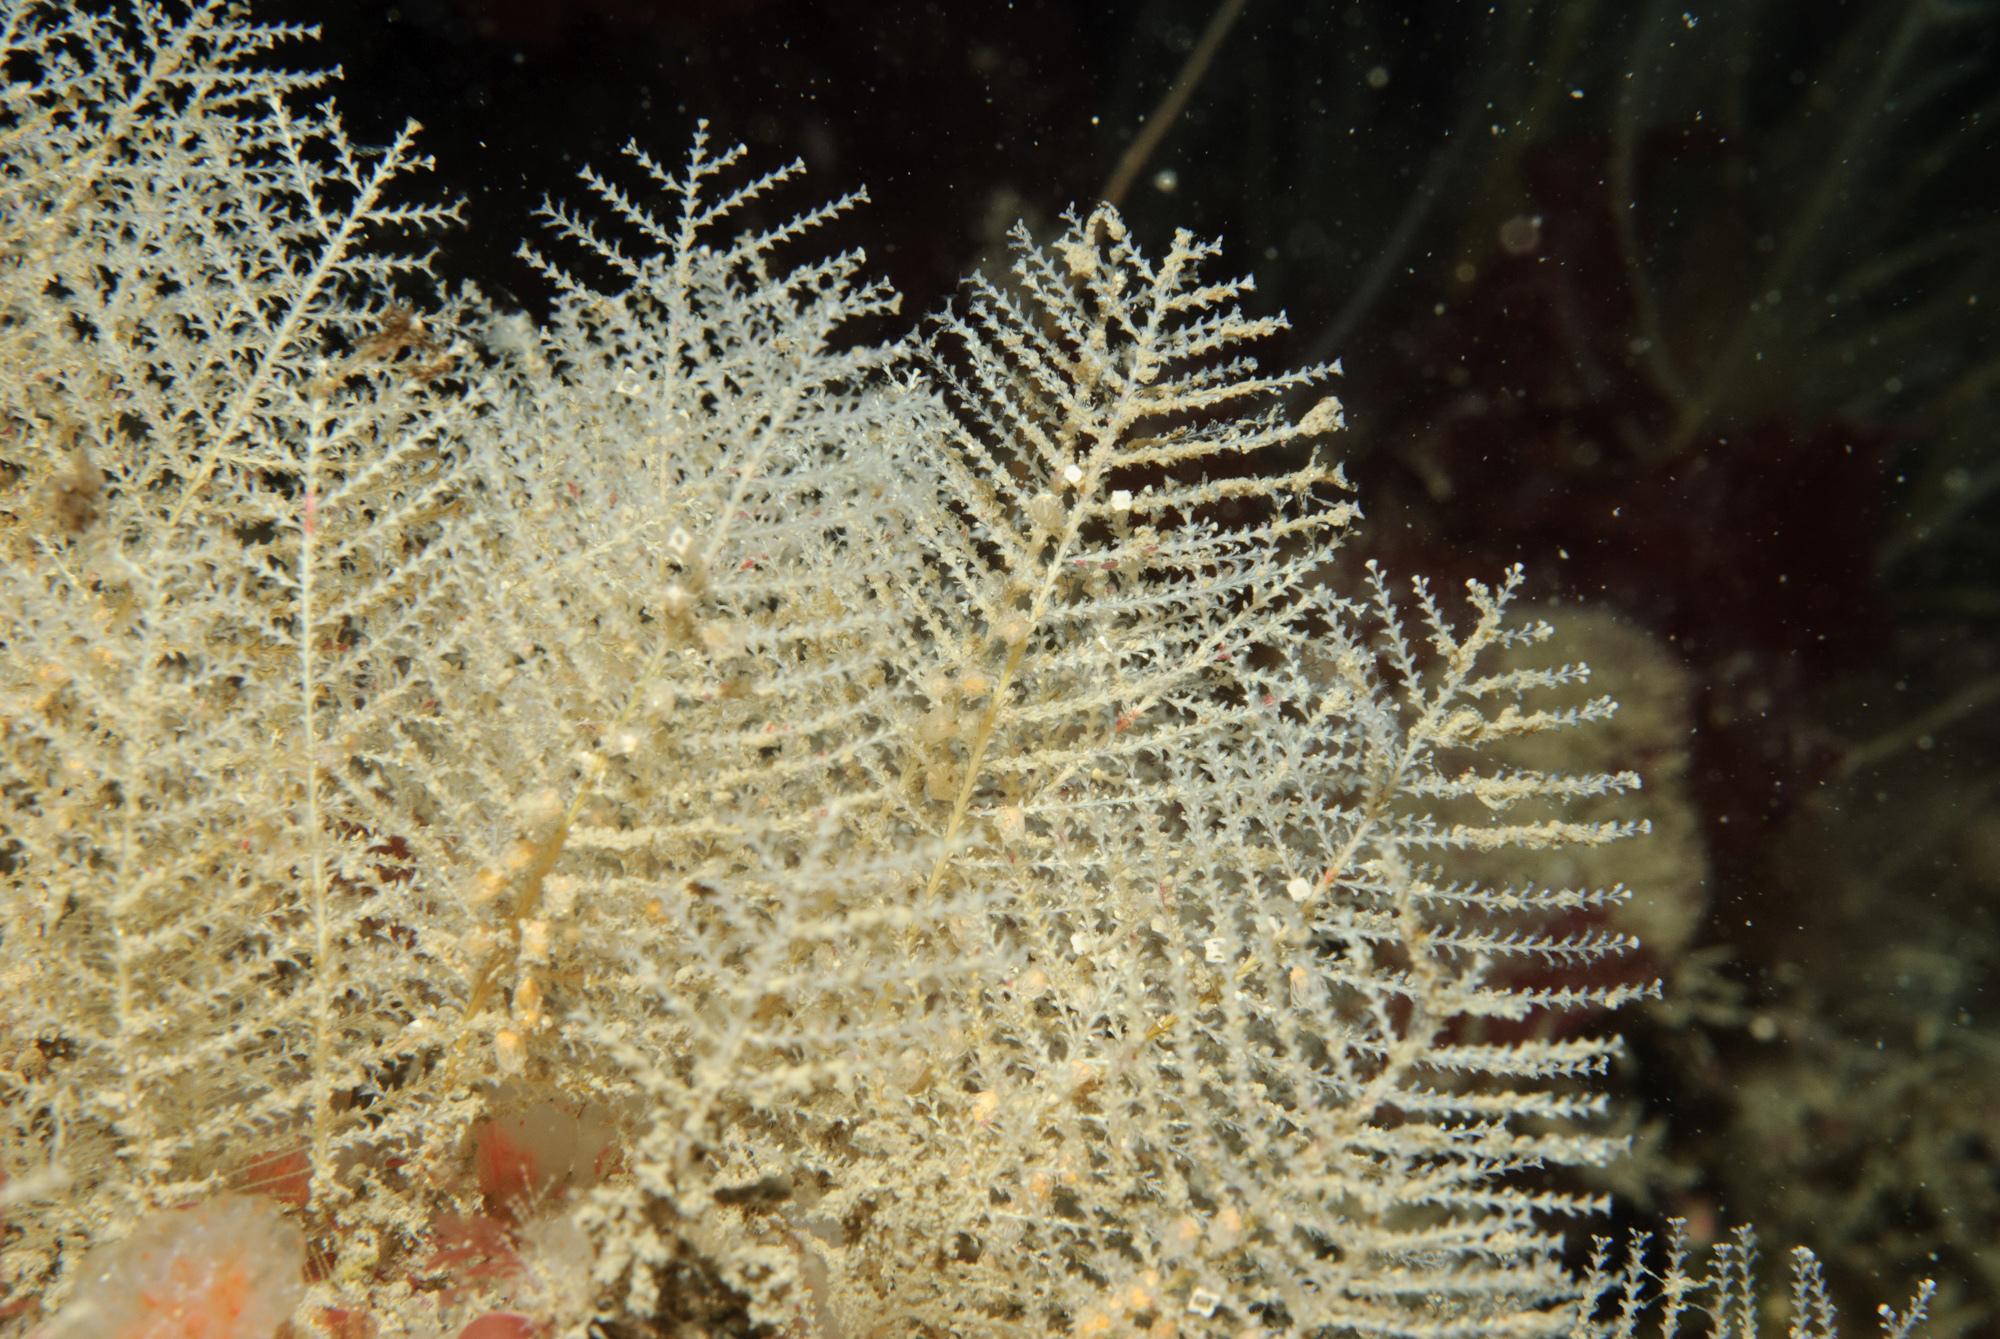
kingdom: Animalia
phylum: Cnidaria
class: Hydrozoa
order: Leptothecata
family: Sertulariidae
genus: Diphasia
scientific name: Diphasia margareta
